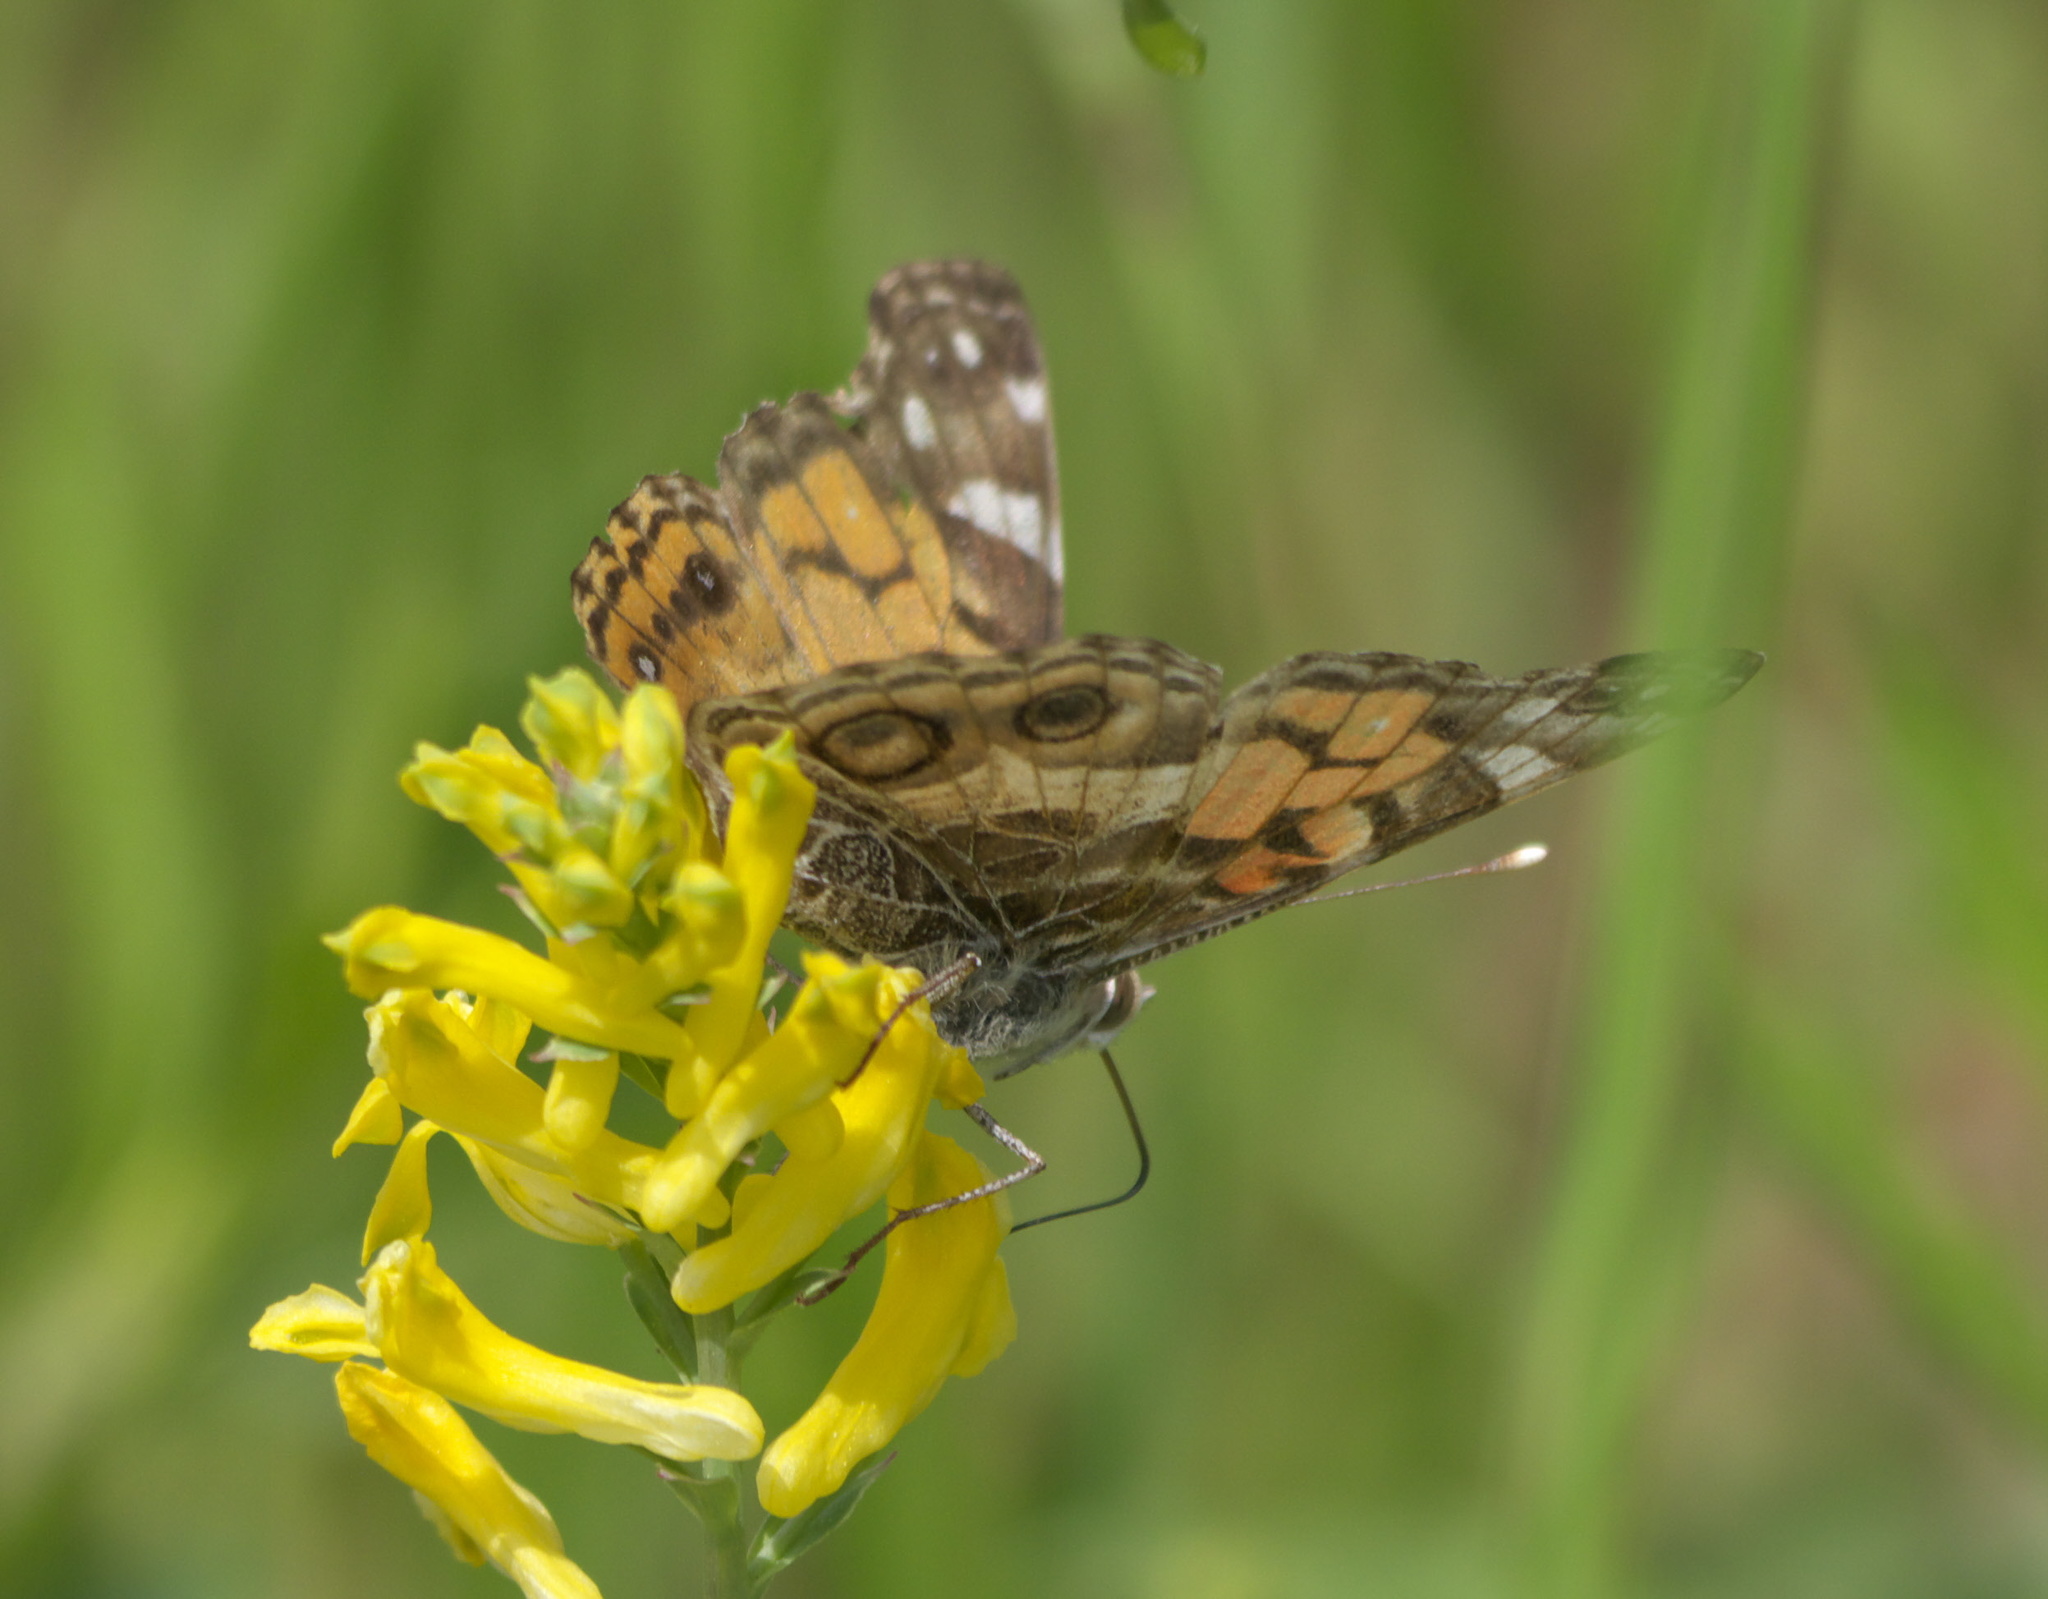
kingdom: Animalia
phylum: Arthropoda
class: Insecta
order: Lepidoptera
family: Nymphalidae
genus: Vanessa
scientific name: Vanessa virginiensis
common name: American lady
